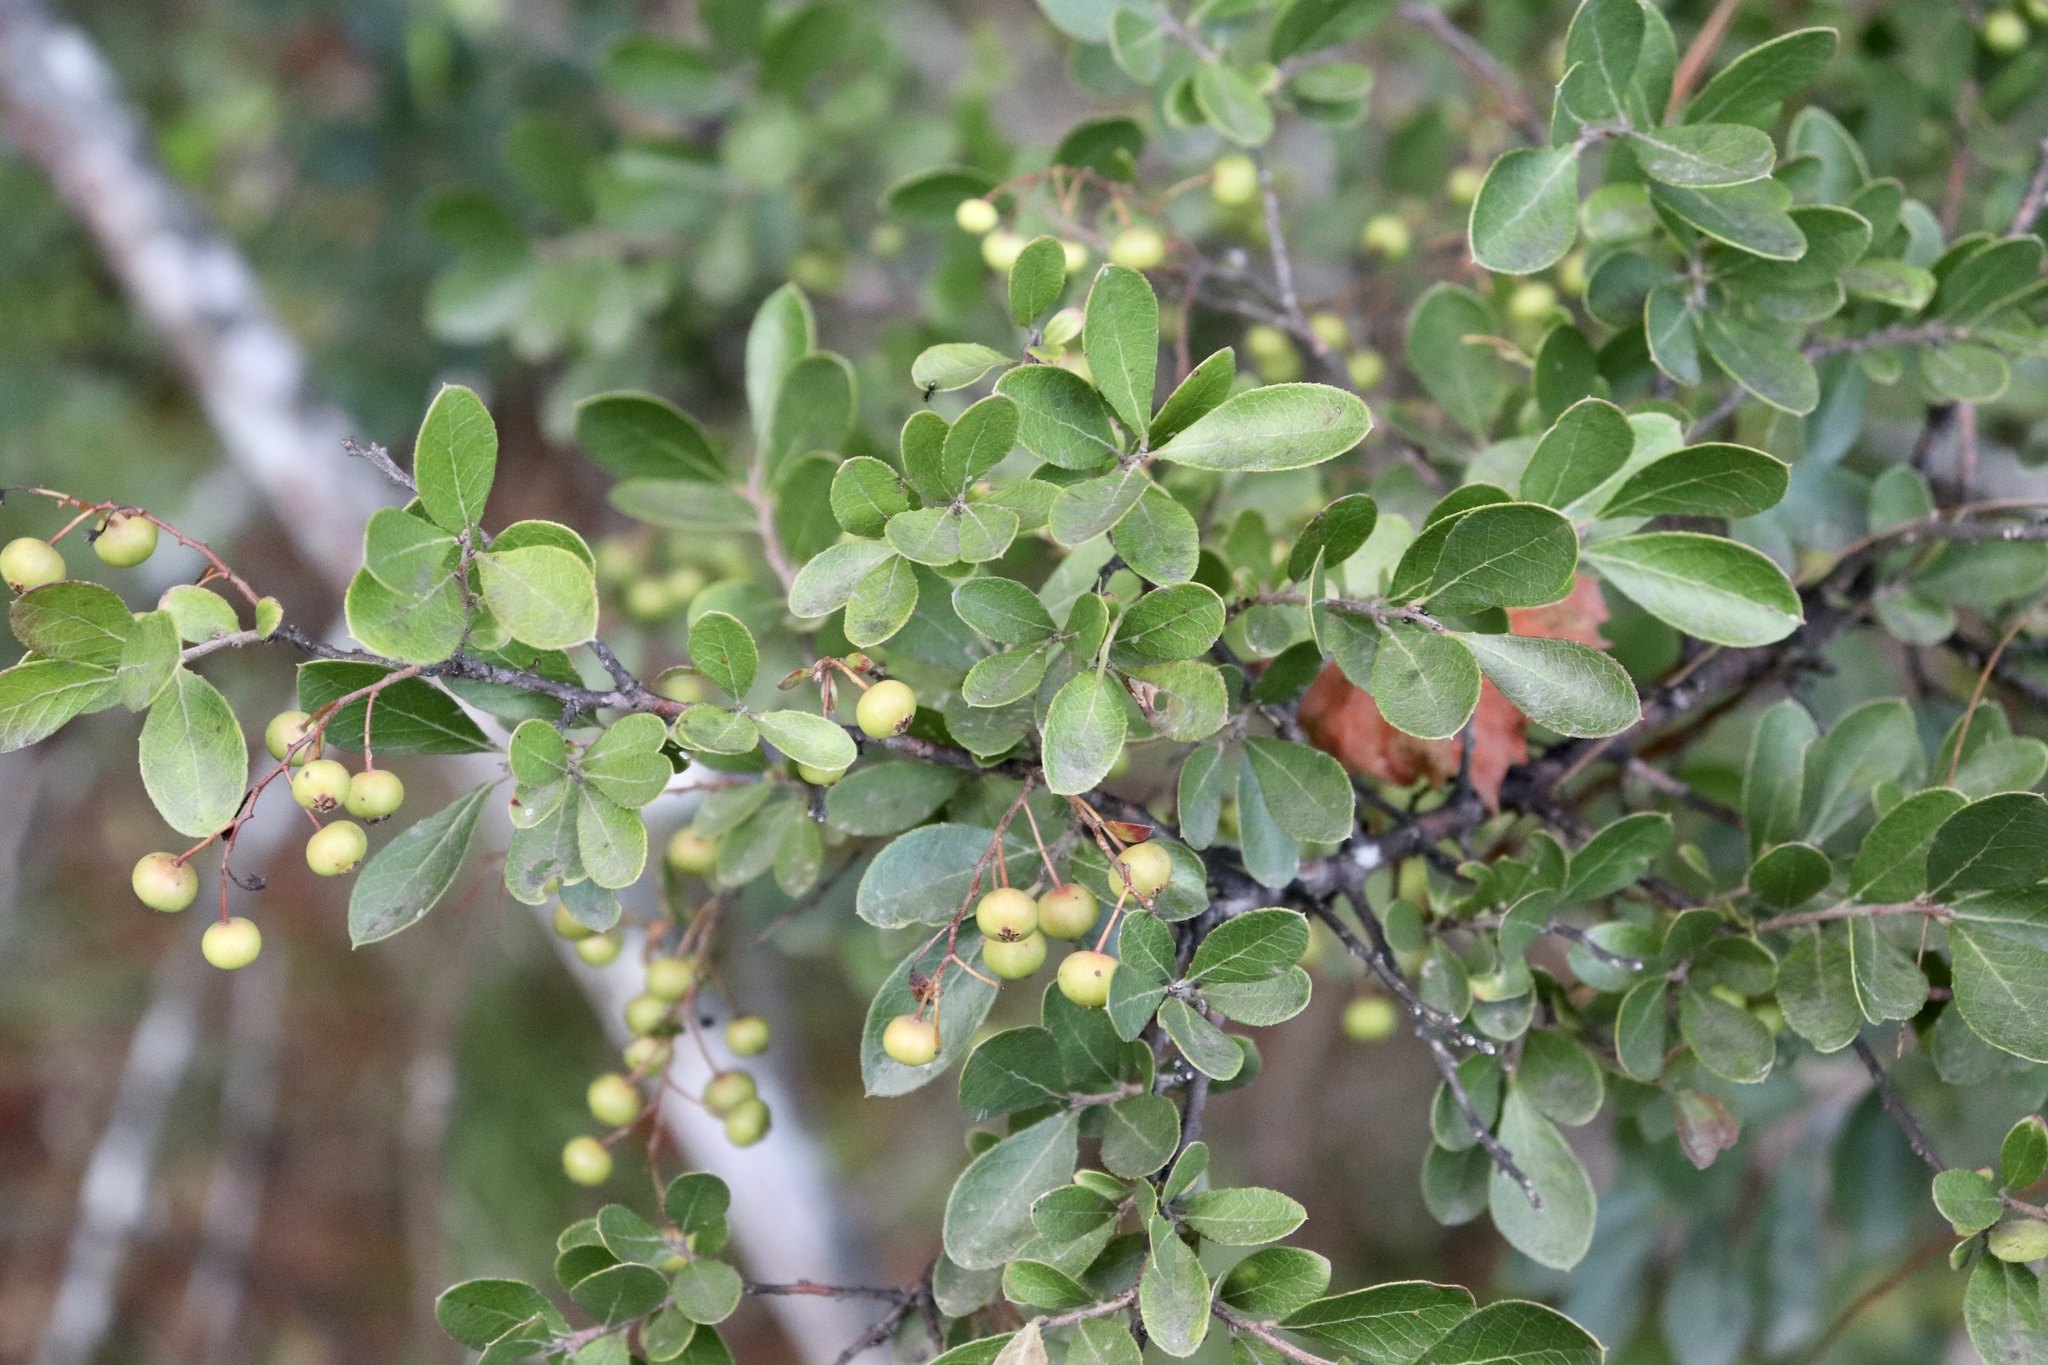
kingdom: Plantae
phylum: Tracheophyta
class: Magnoliopsida
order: Ericales
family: Ericaceae
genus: Vaccinium
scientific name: Vaccinium arboreum
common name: Farkleberry
